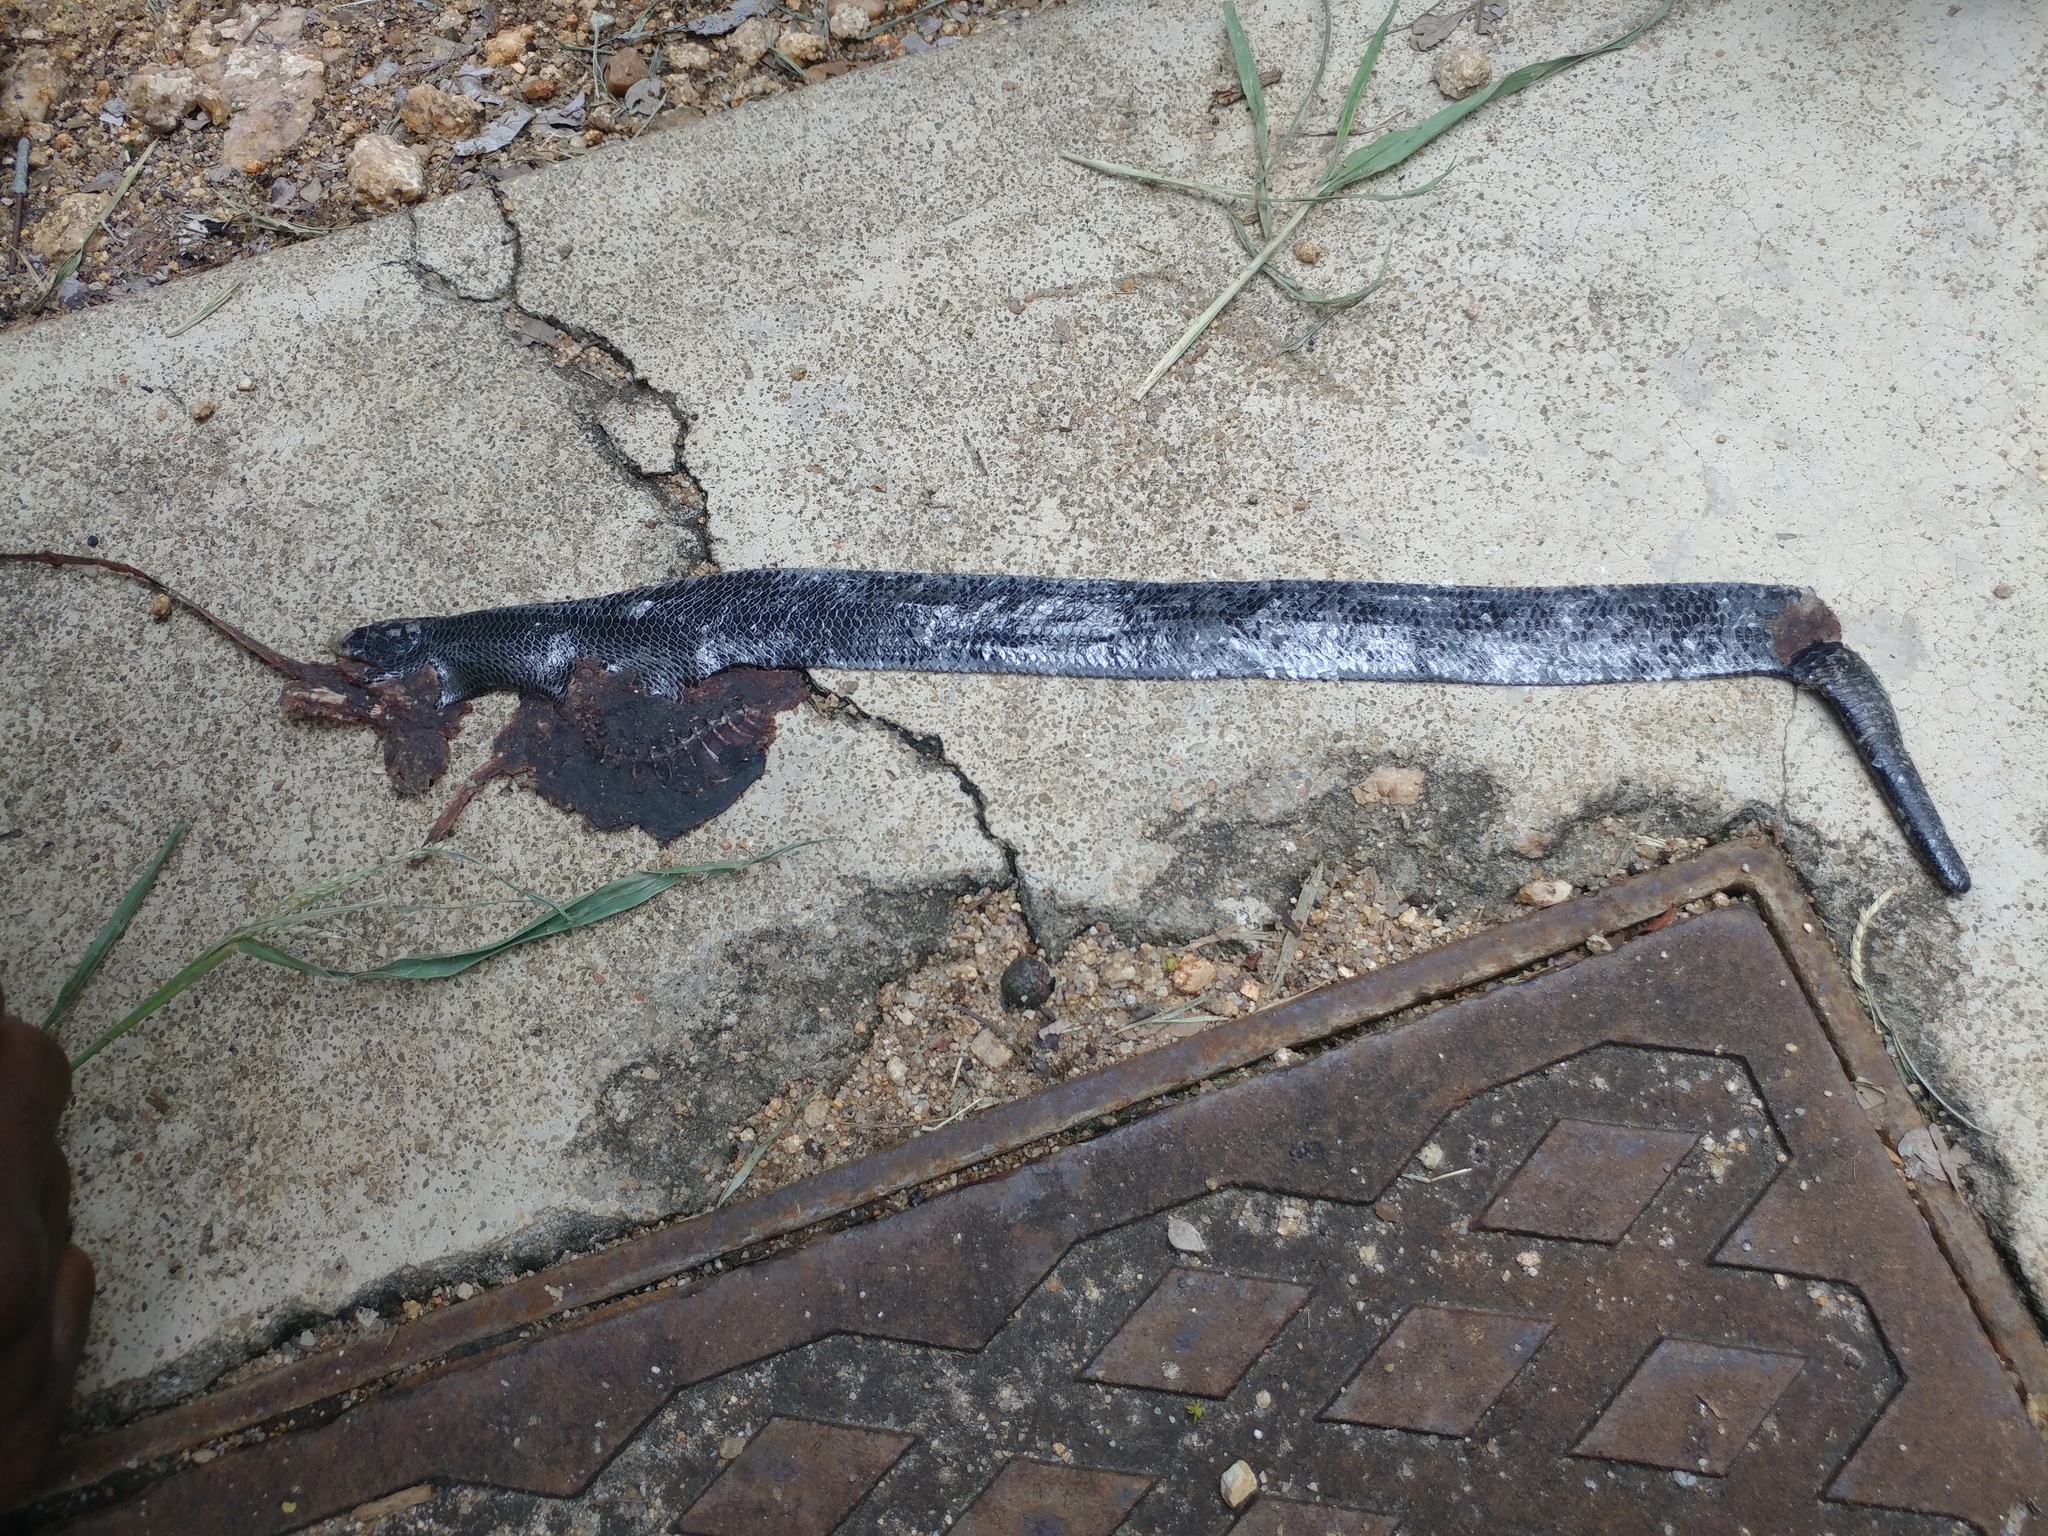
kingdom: Animalia
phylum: Chordata
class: Squamata
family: Scincidae
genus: Acontias
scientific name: Acontias plumbeus
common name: Giant lance skink
